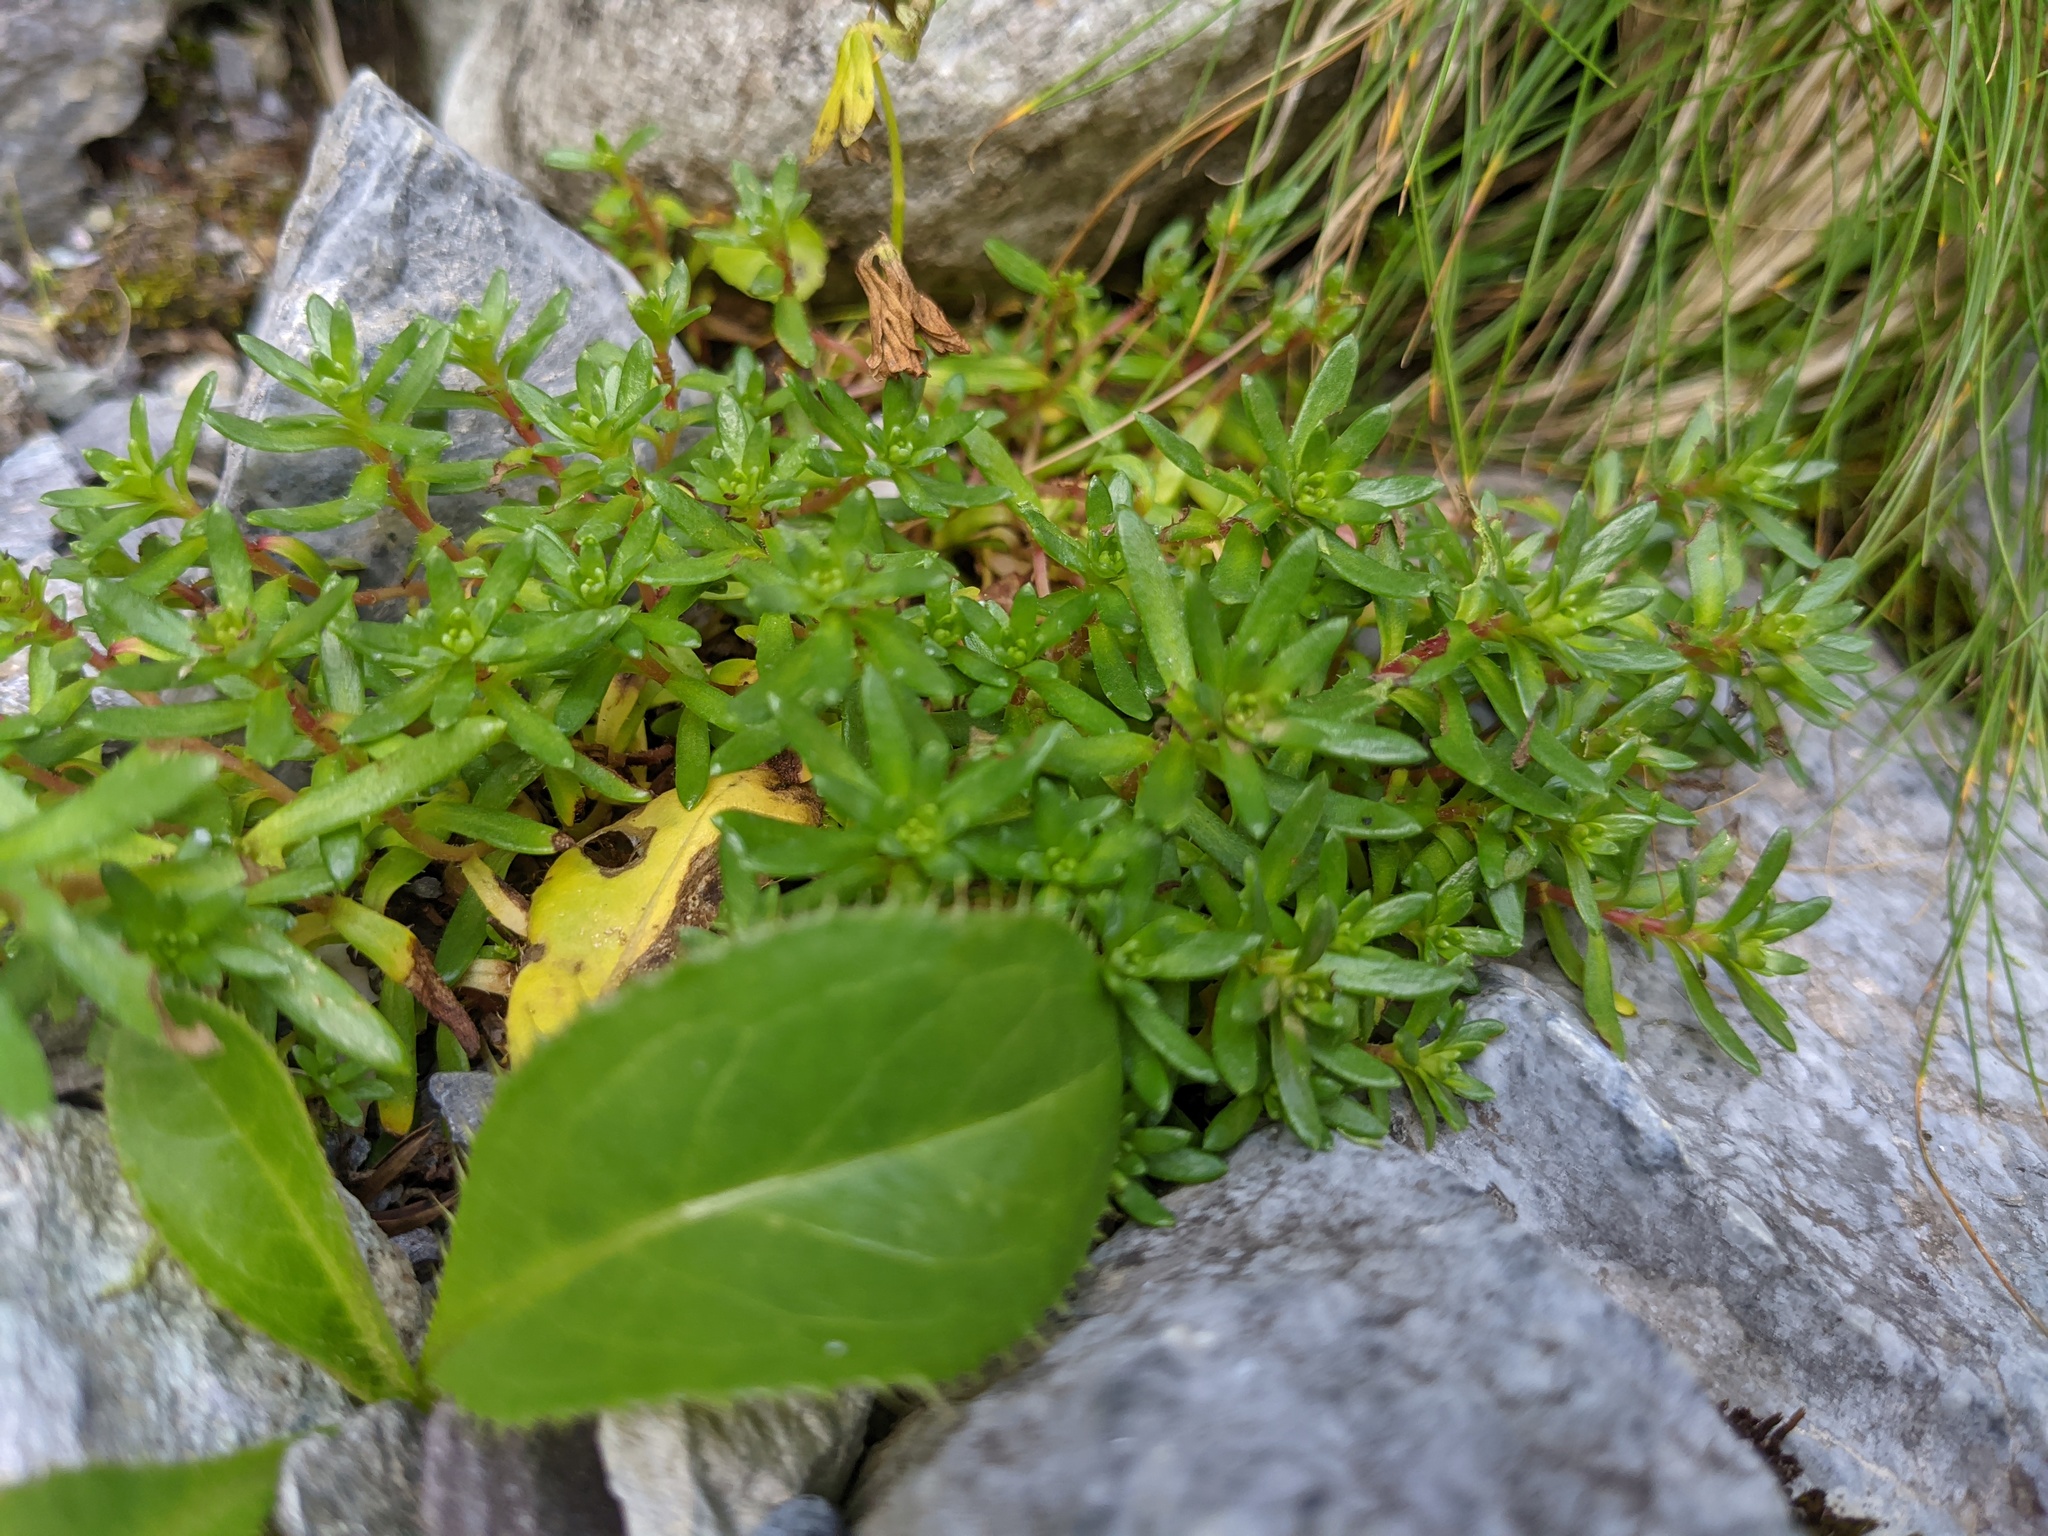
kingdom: Plantae
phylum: Tracheophyta
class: Magnoliopsida
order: Saxifragales
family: Saxifragaceae
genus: Saxifraga
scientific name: Saxifraga aizoides
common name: Yellow mountain saxifrage
